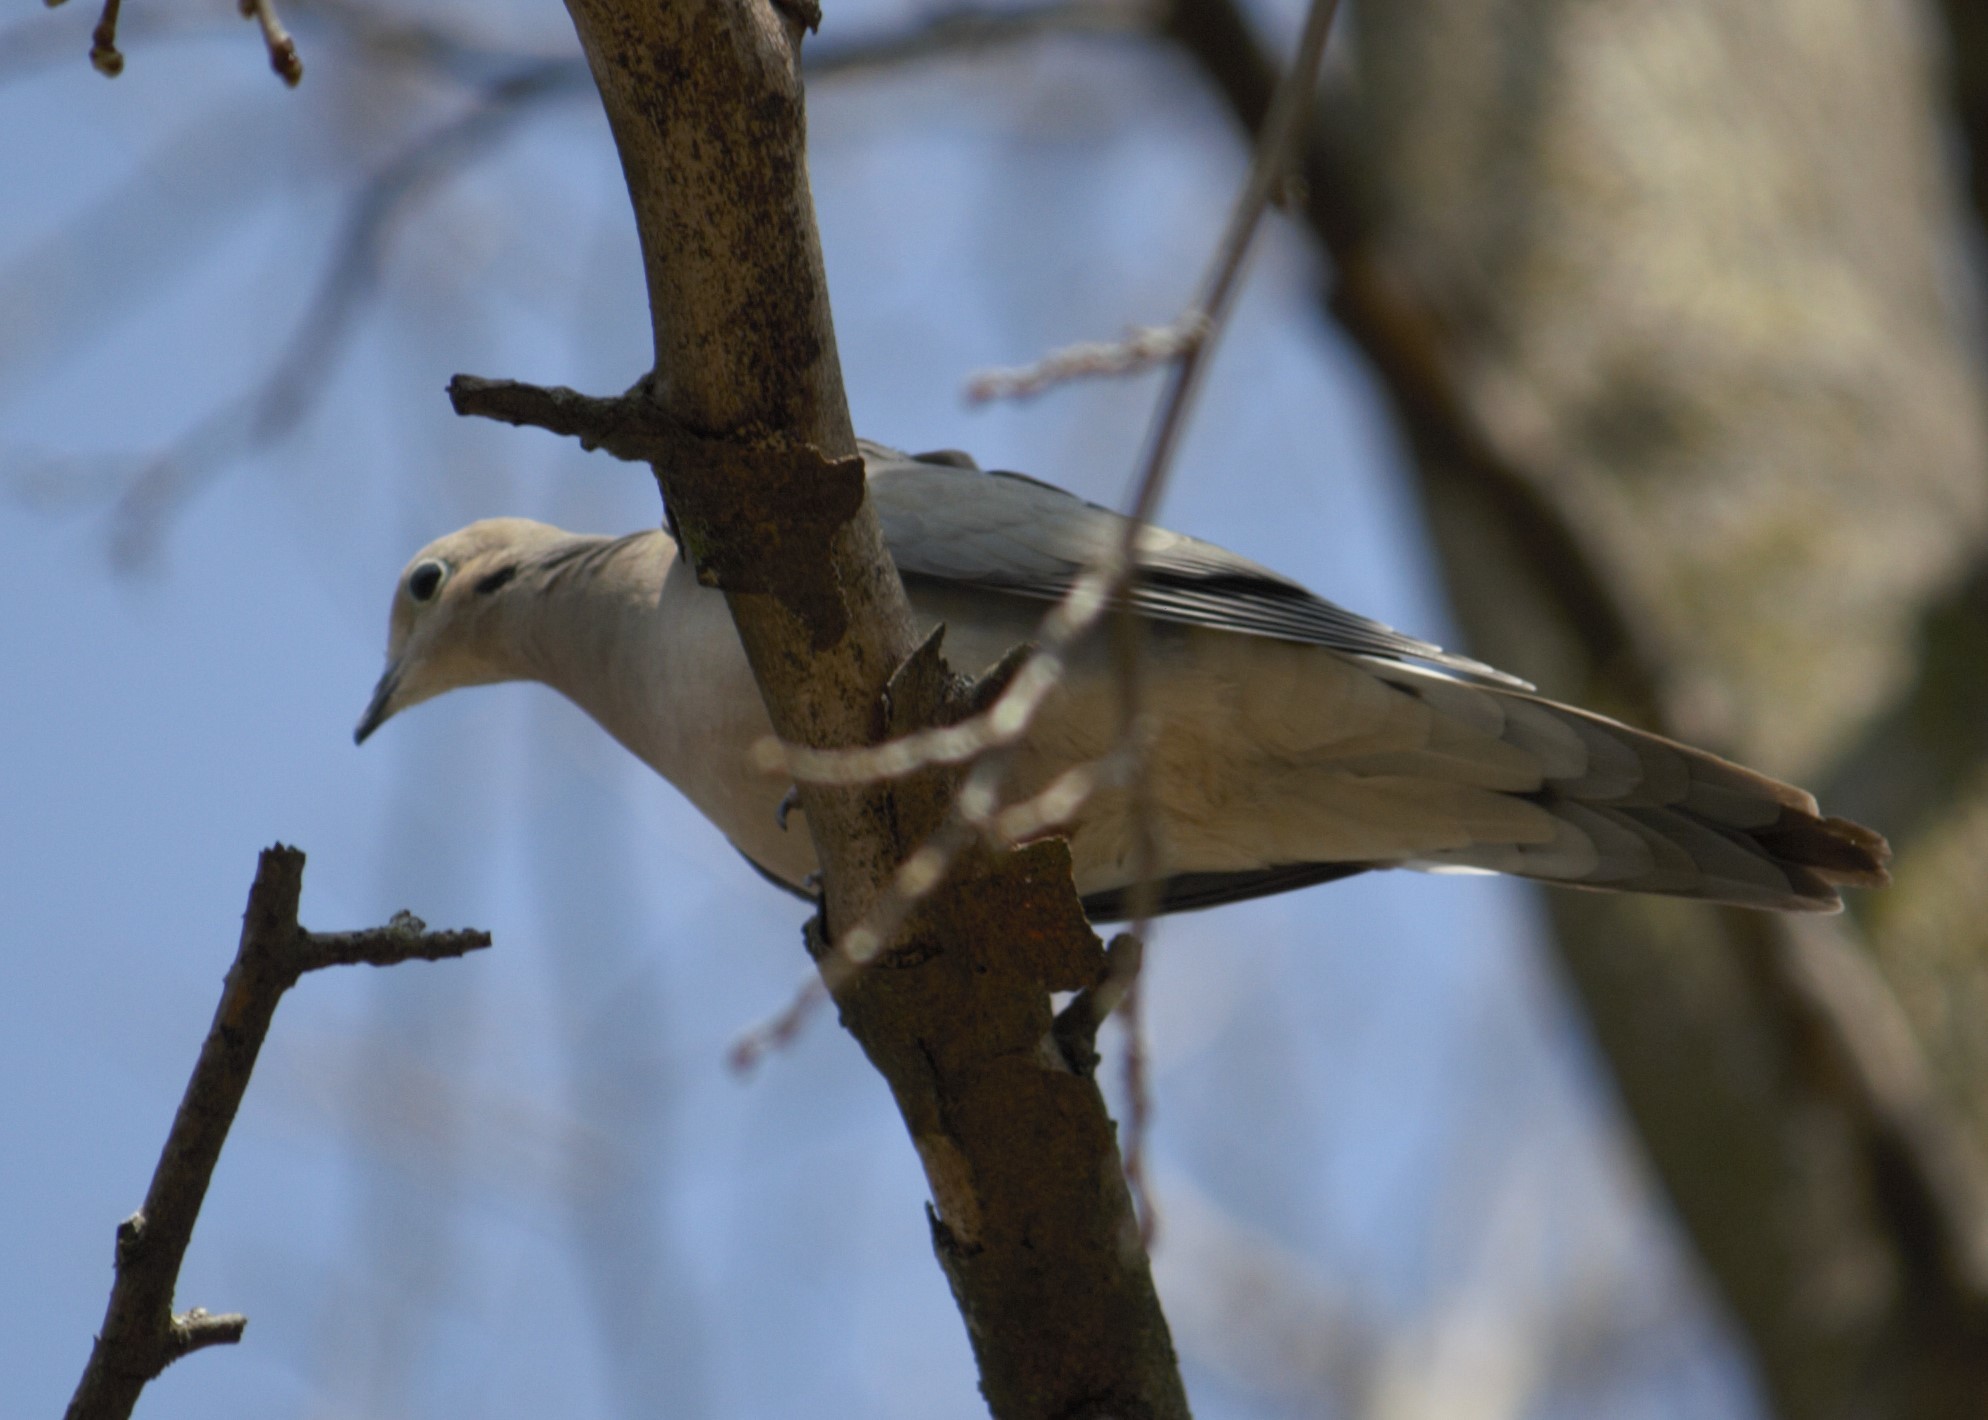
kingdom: Animalia
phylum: Chordata
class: Aves
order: Columbiformes
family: Columbidae
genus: Zenaida
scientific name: Zenaida macroura
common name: Mourning dove
